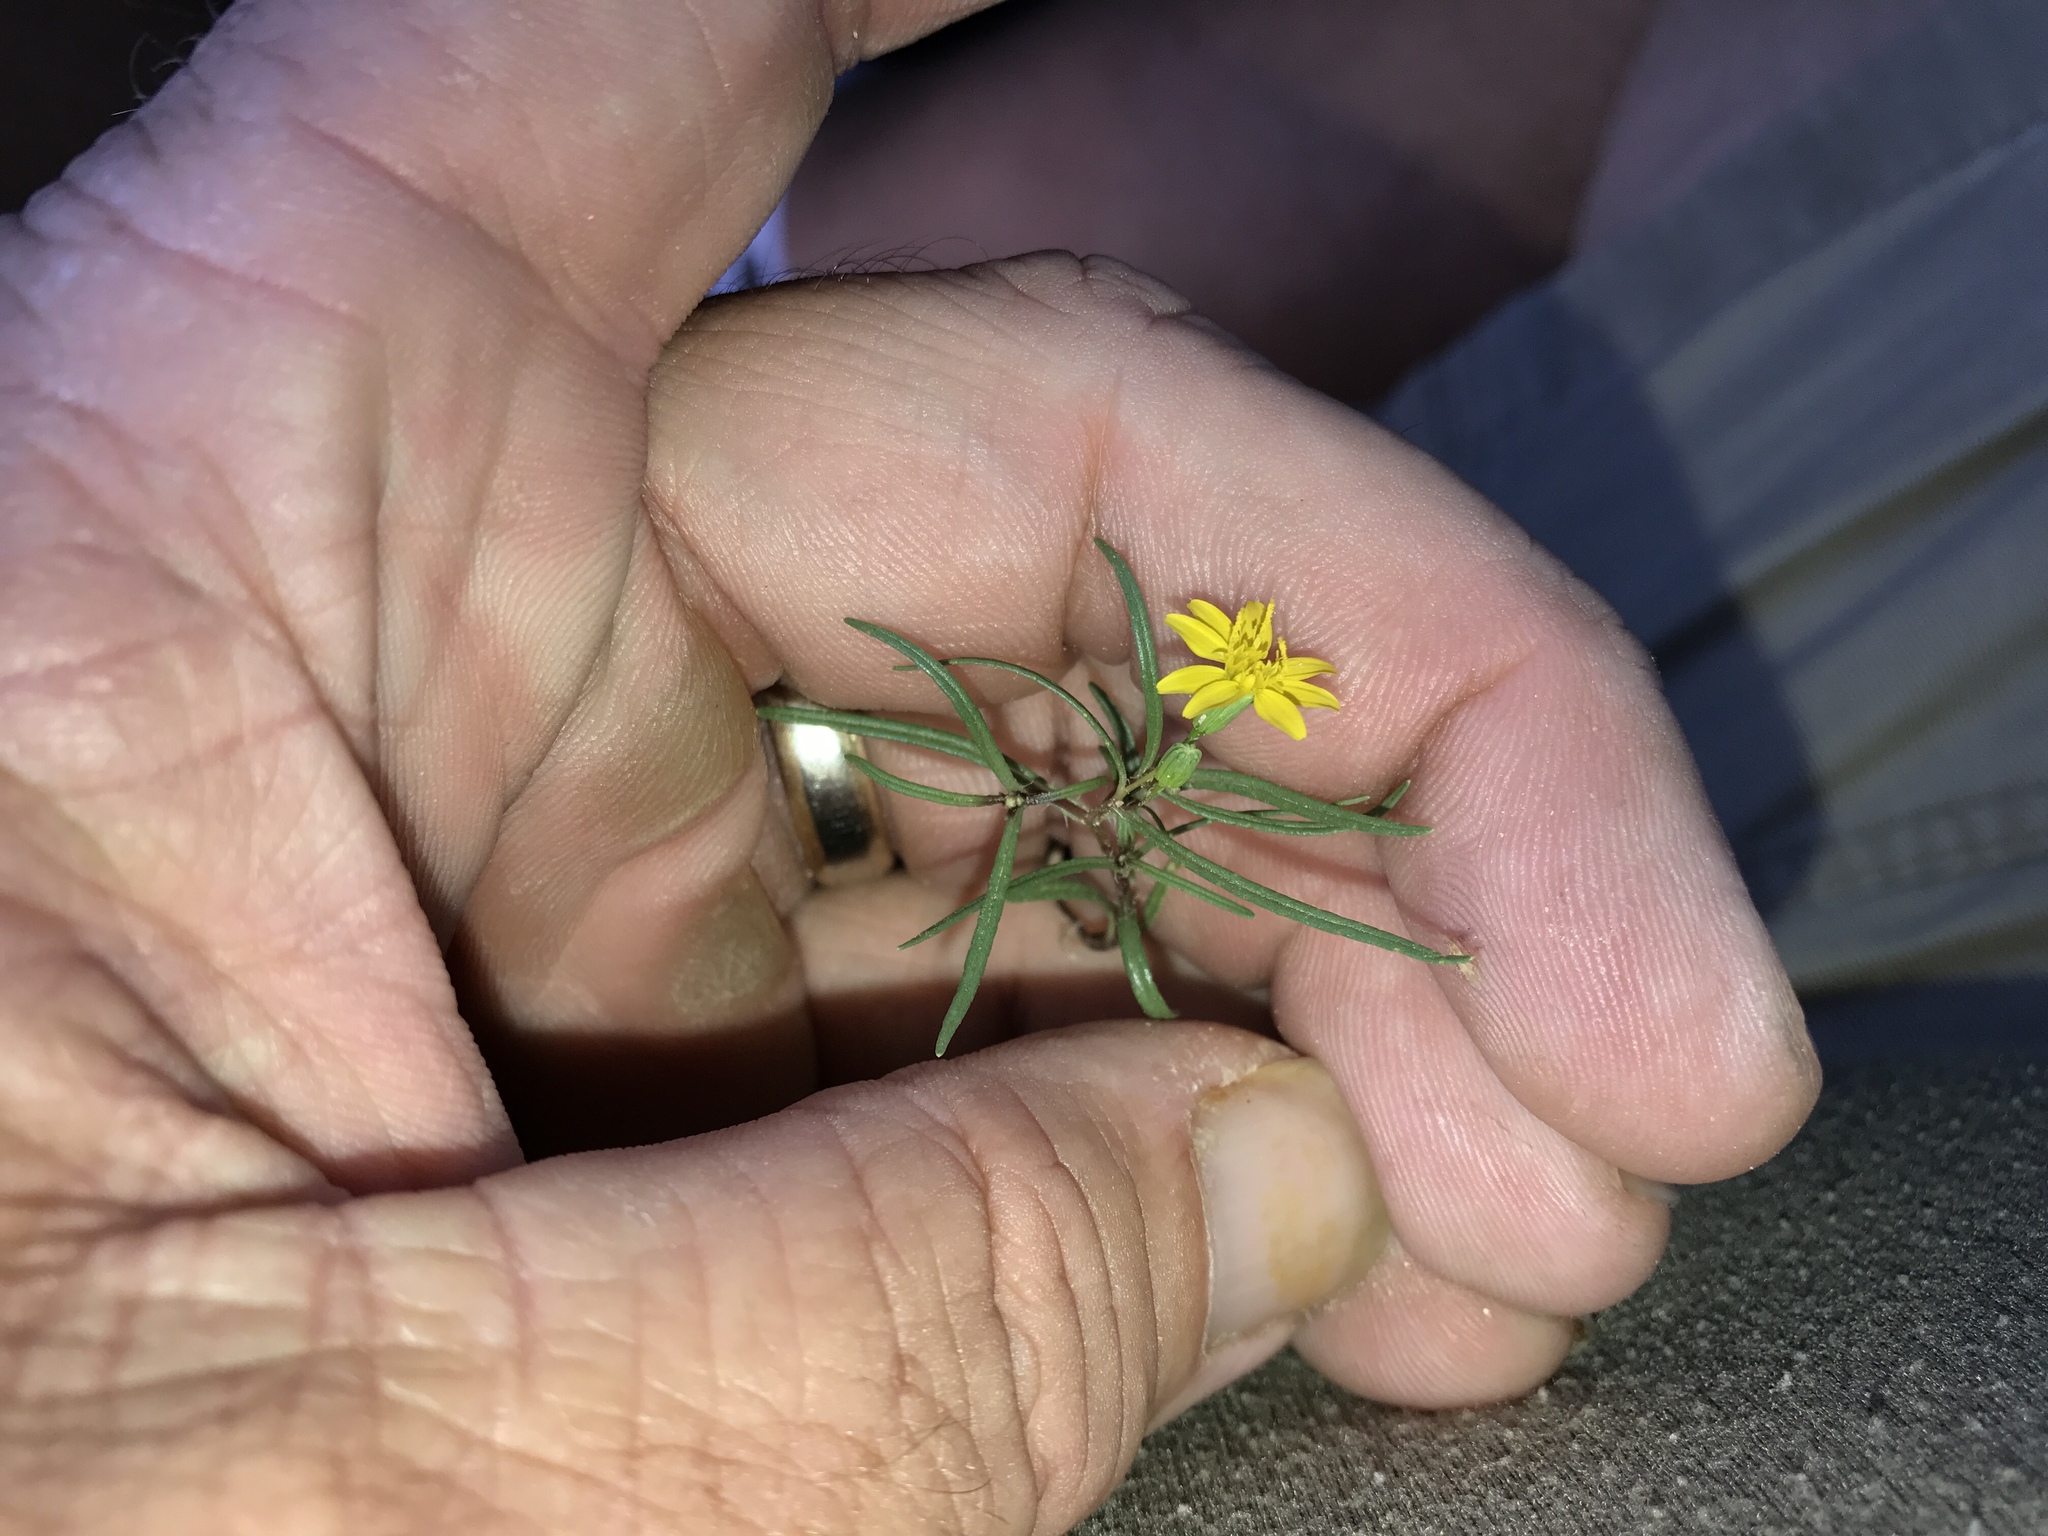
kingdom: Plantae
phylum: Tracheophyta
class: Magnoliopsida
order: Asterales
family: Asteraceae
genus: Pectis
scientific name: Pectis papposa
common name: Many-bristle chinchweed
